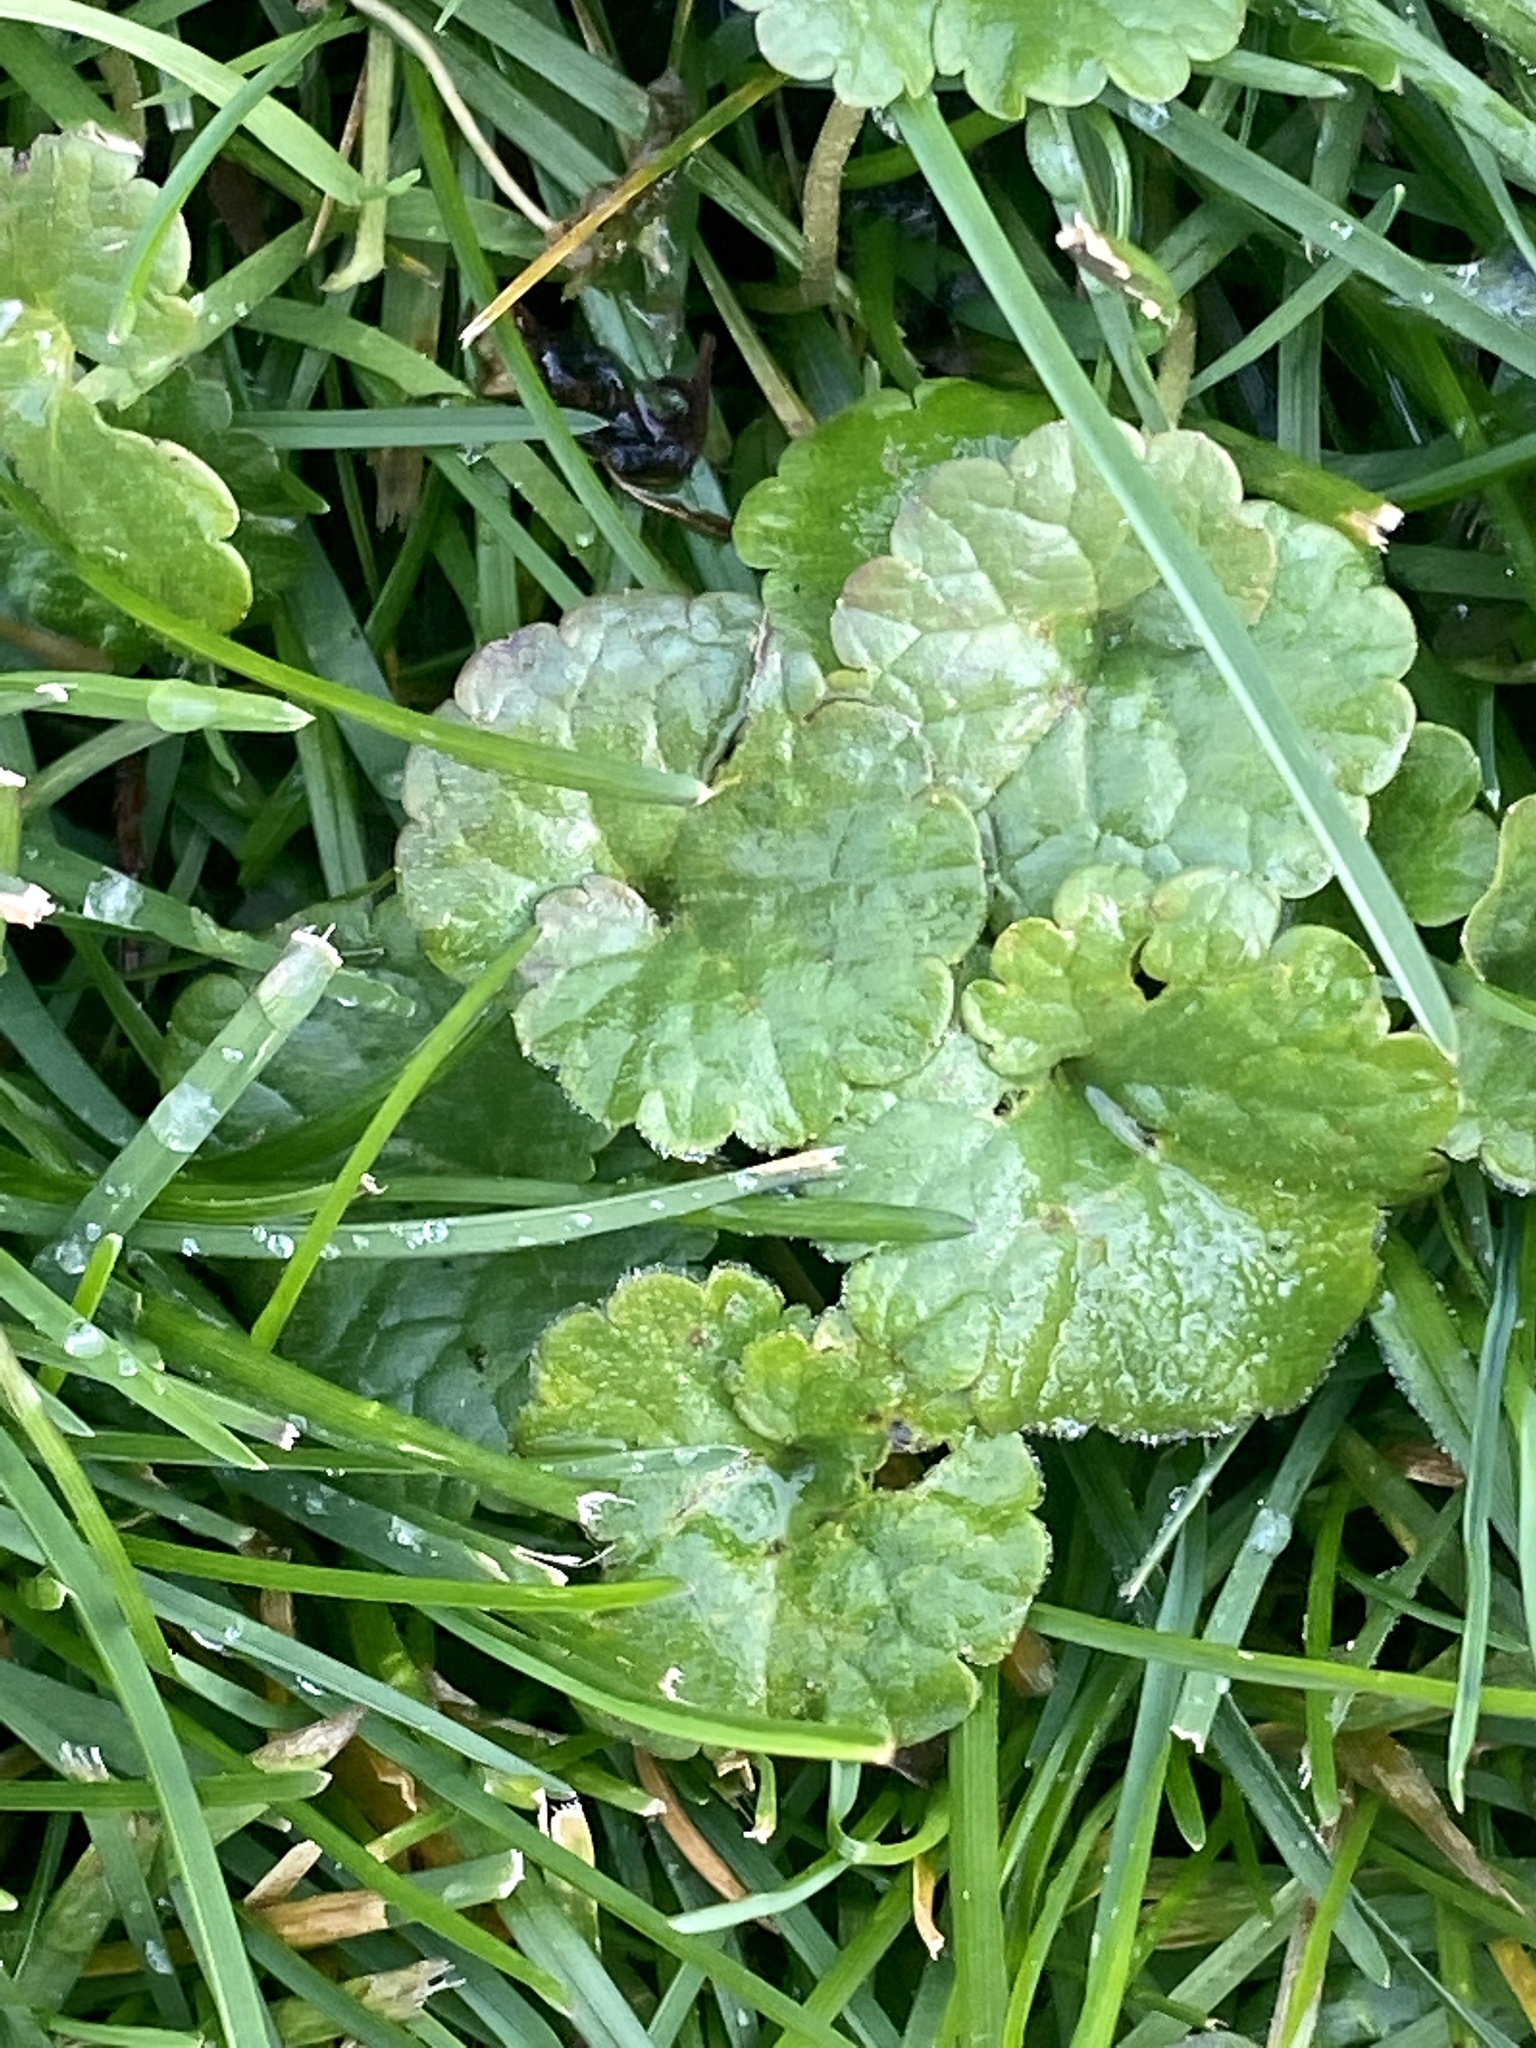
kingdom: Plantae
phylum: Tracheophyta
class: Magnoliopsida
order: Lamiales
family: Lamiaceae
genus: Glechoma
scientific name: Glechoma hederacea
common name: Ground ivy
